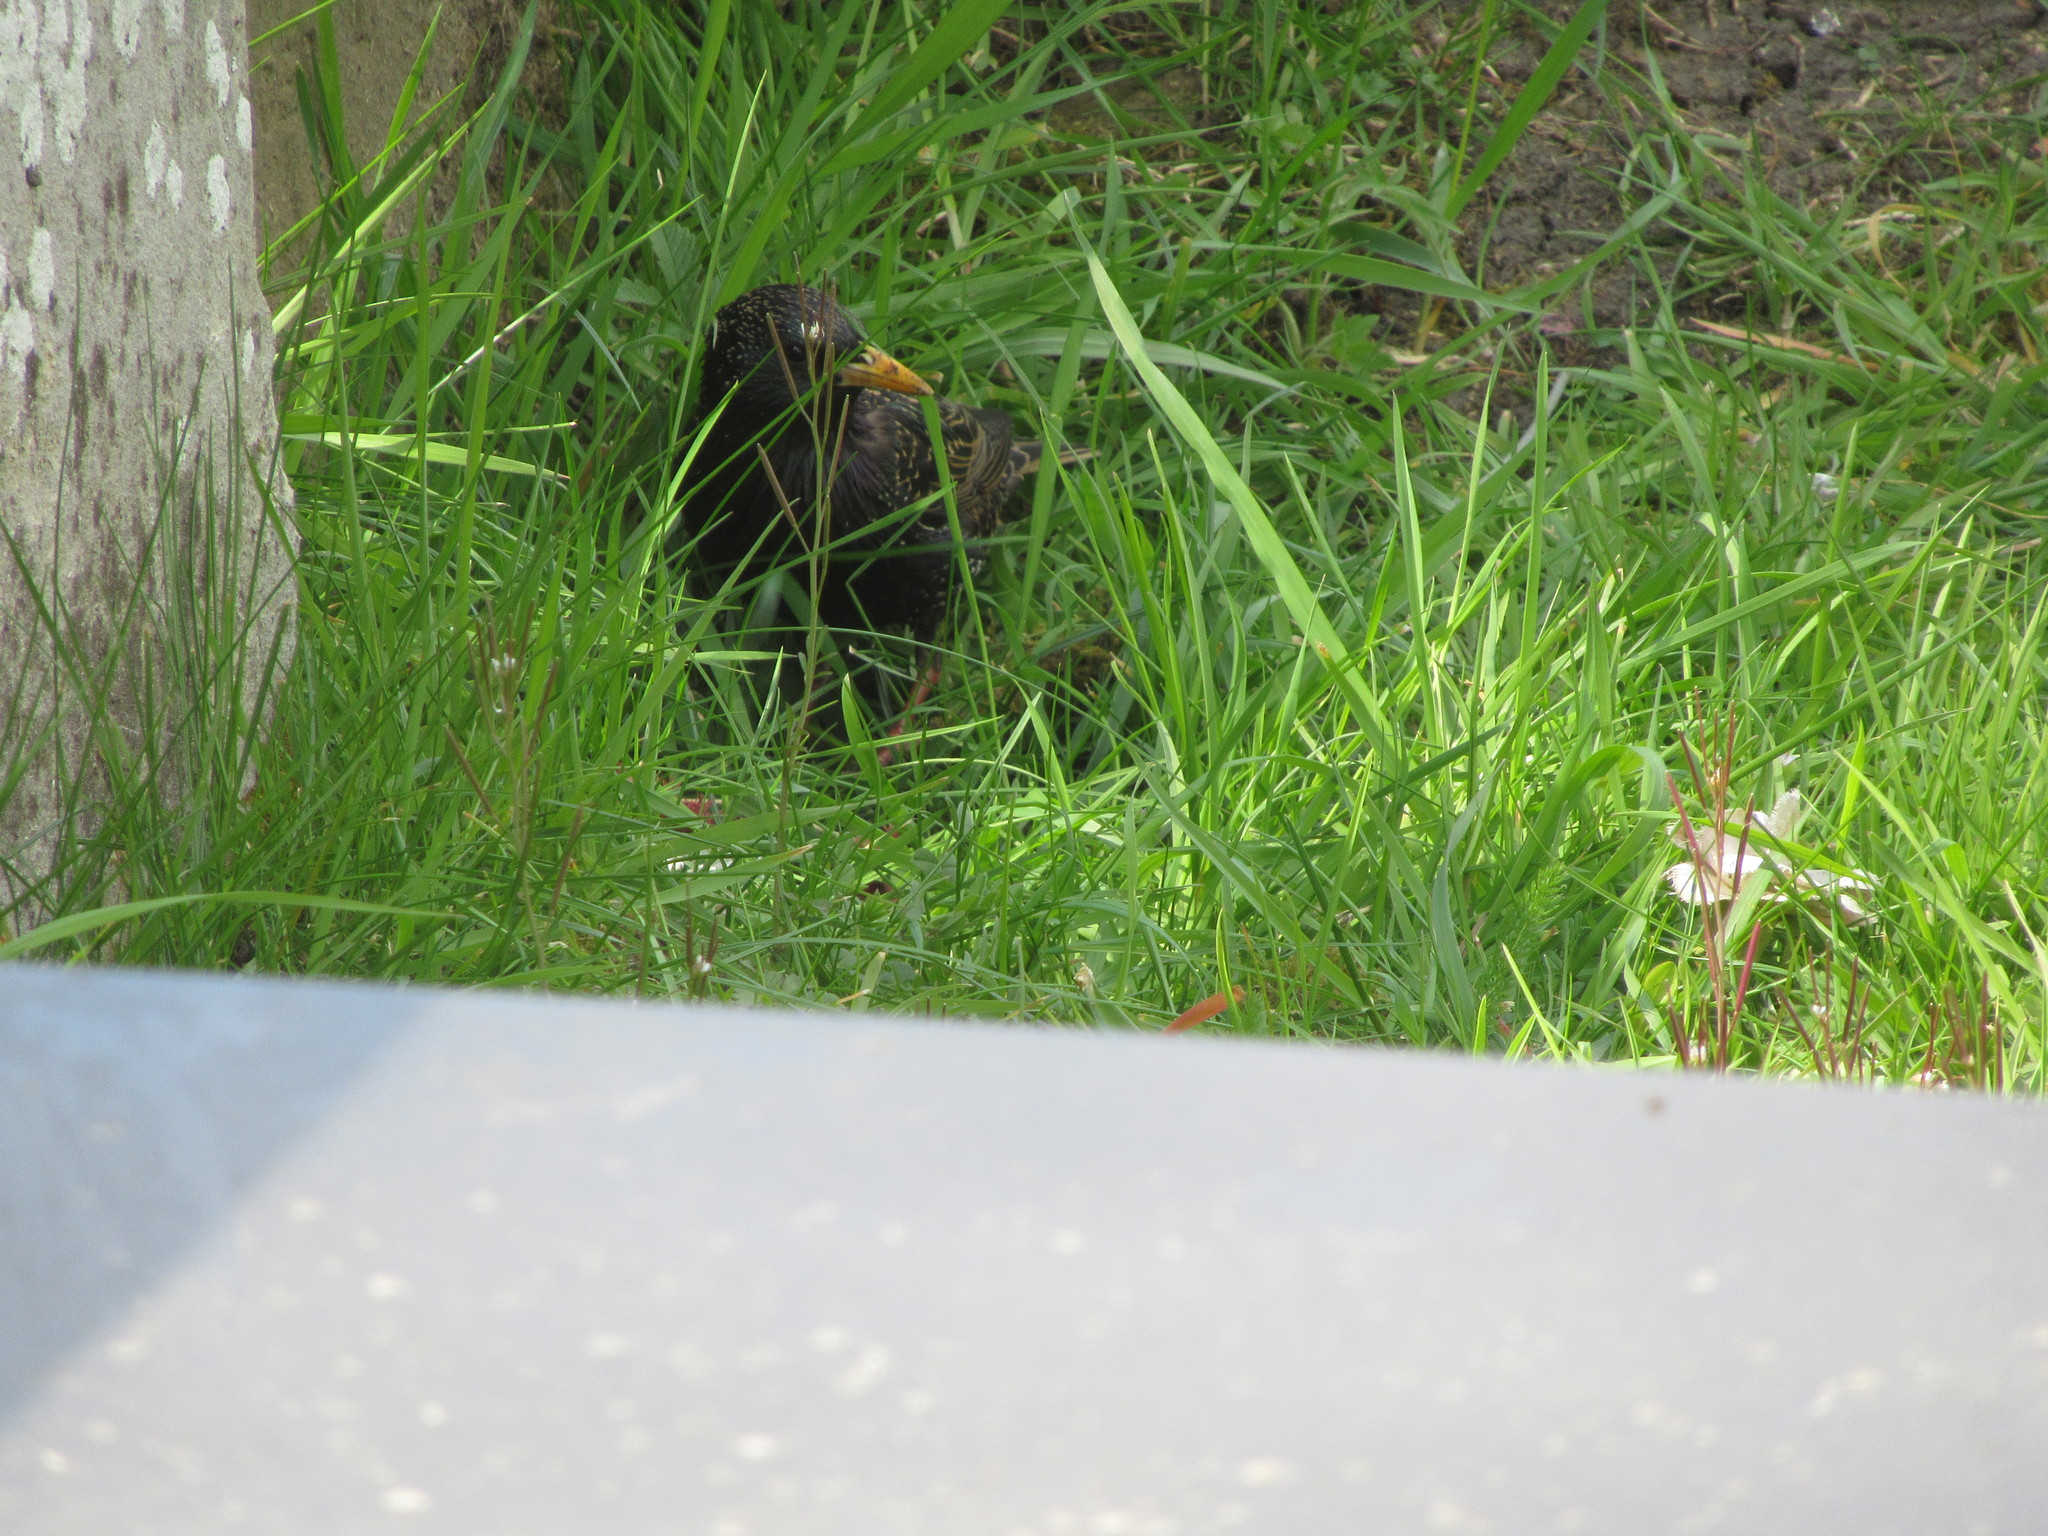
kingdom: Animalia
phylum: Chordata
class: Aves
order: Passeriformes
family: Sturnidae
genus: Sturnus
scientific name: Sturnus vulgaris
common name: Common starling
